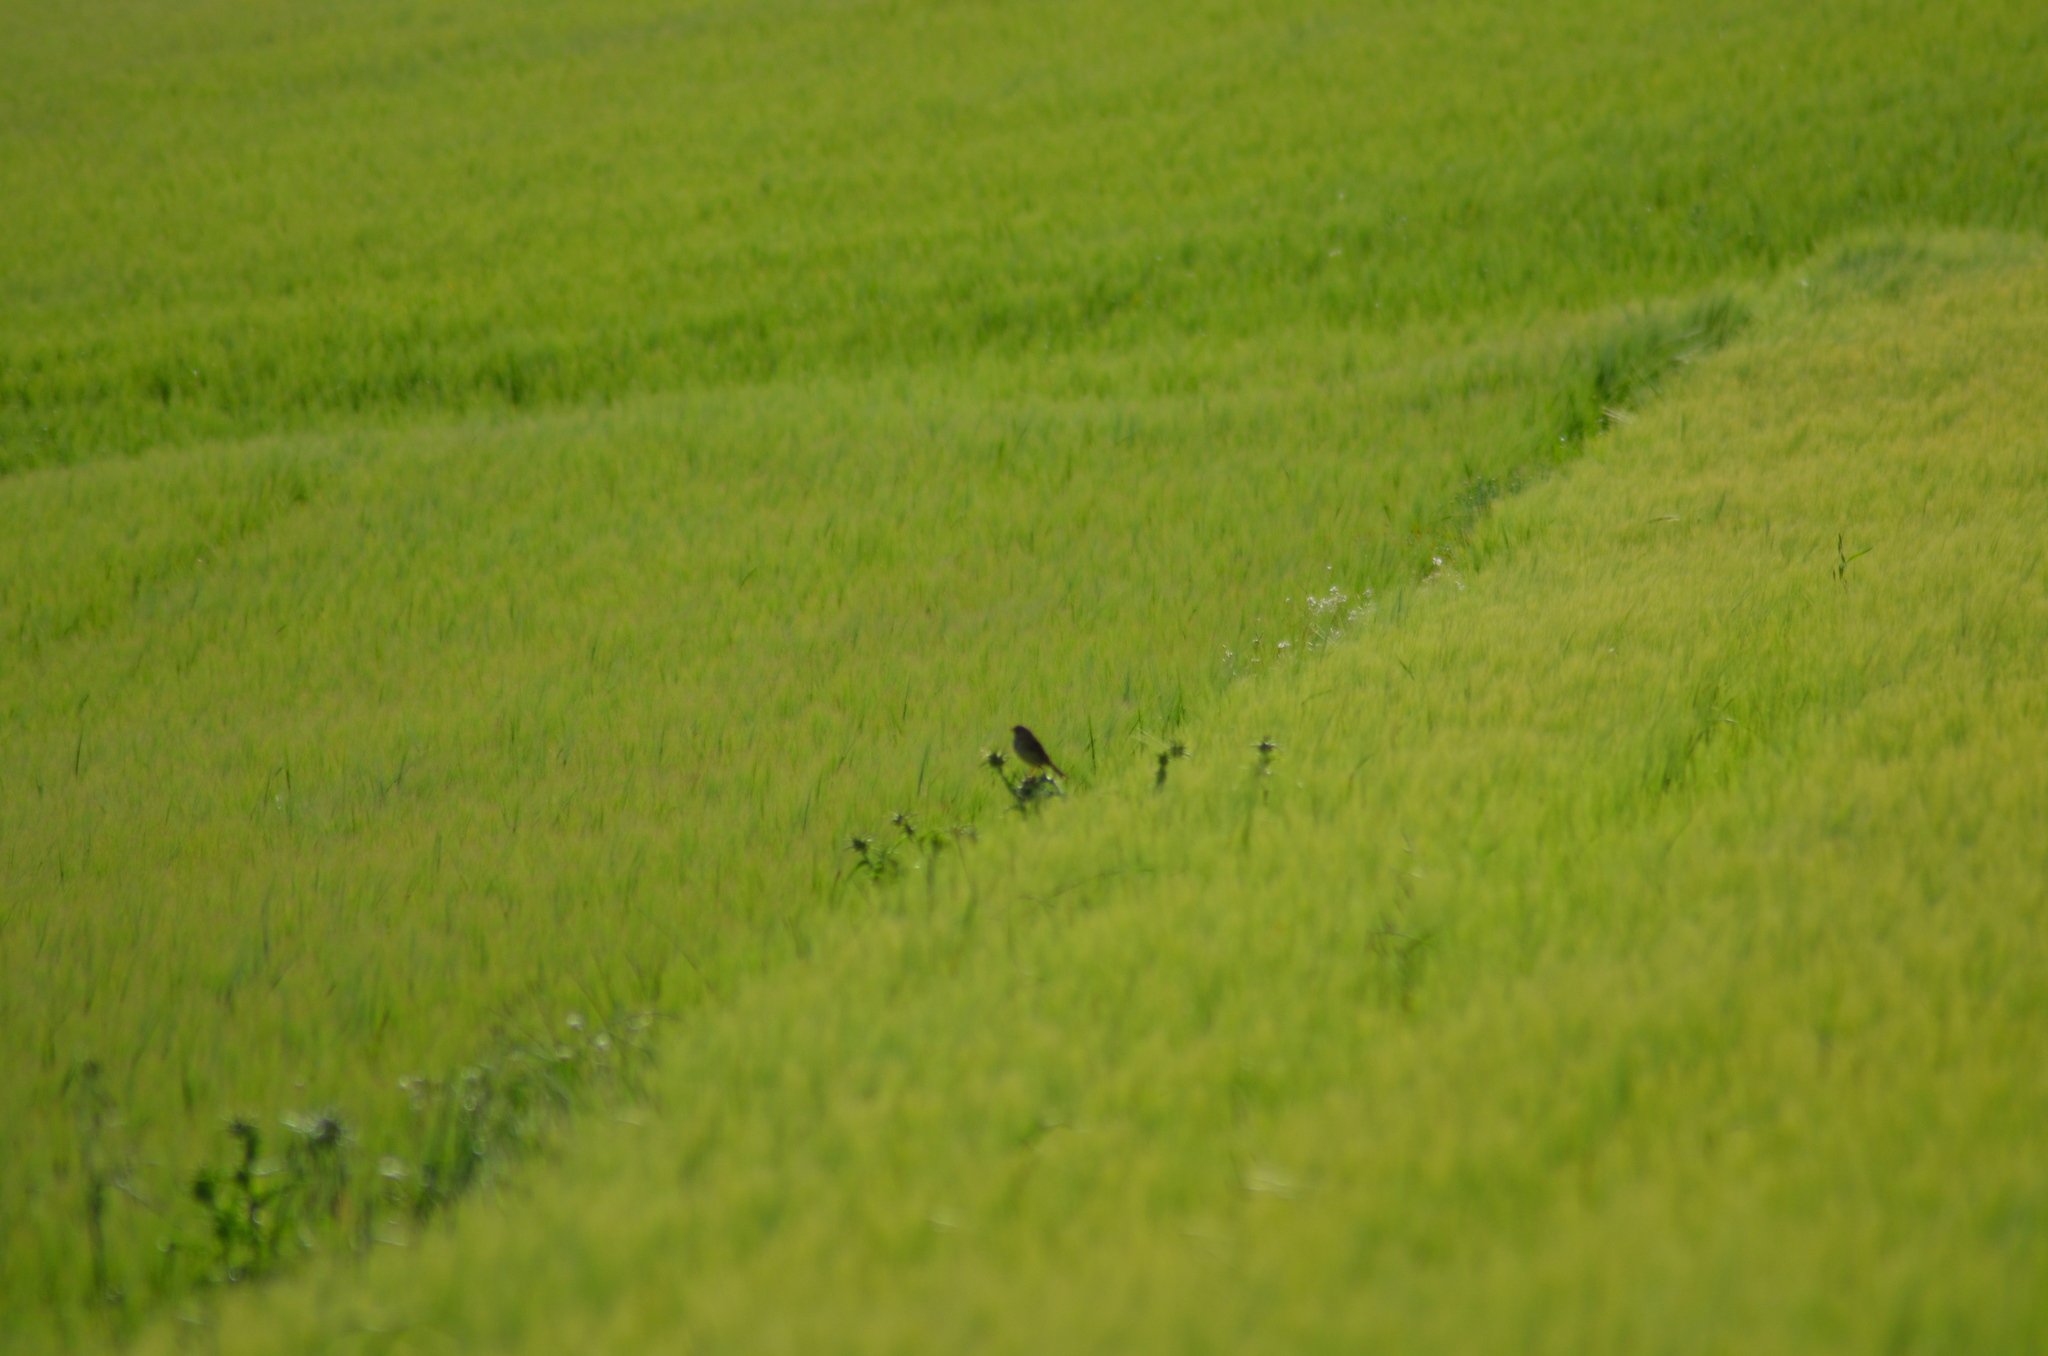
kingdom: Animalia
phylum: Chordata
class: Aves
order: Passeriformes
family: Emberizidae
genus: Emberiza
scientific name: Emberiza calandra
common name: Corn bunting
